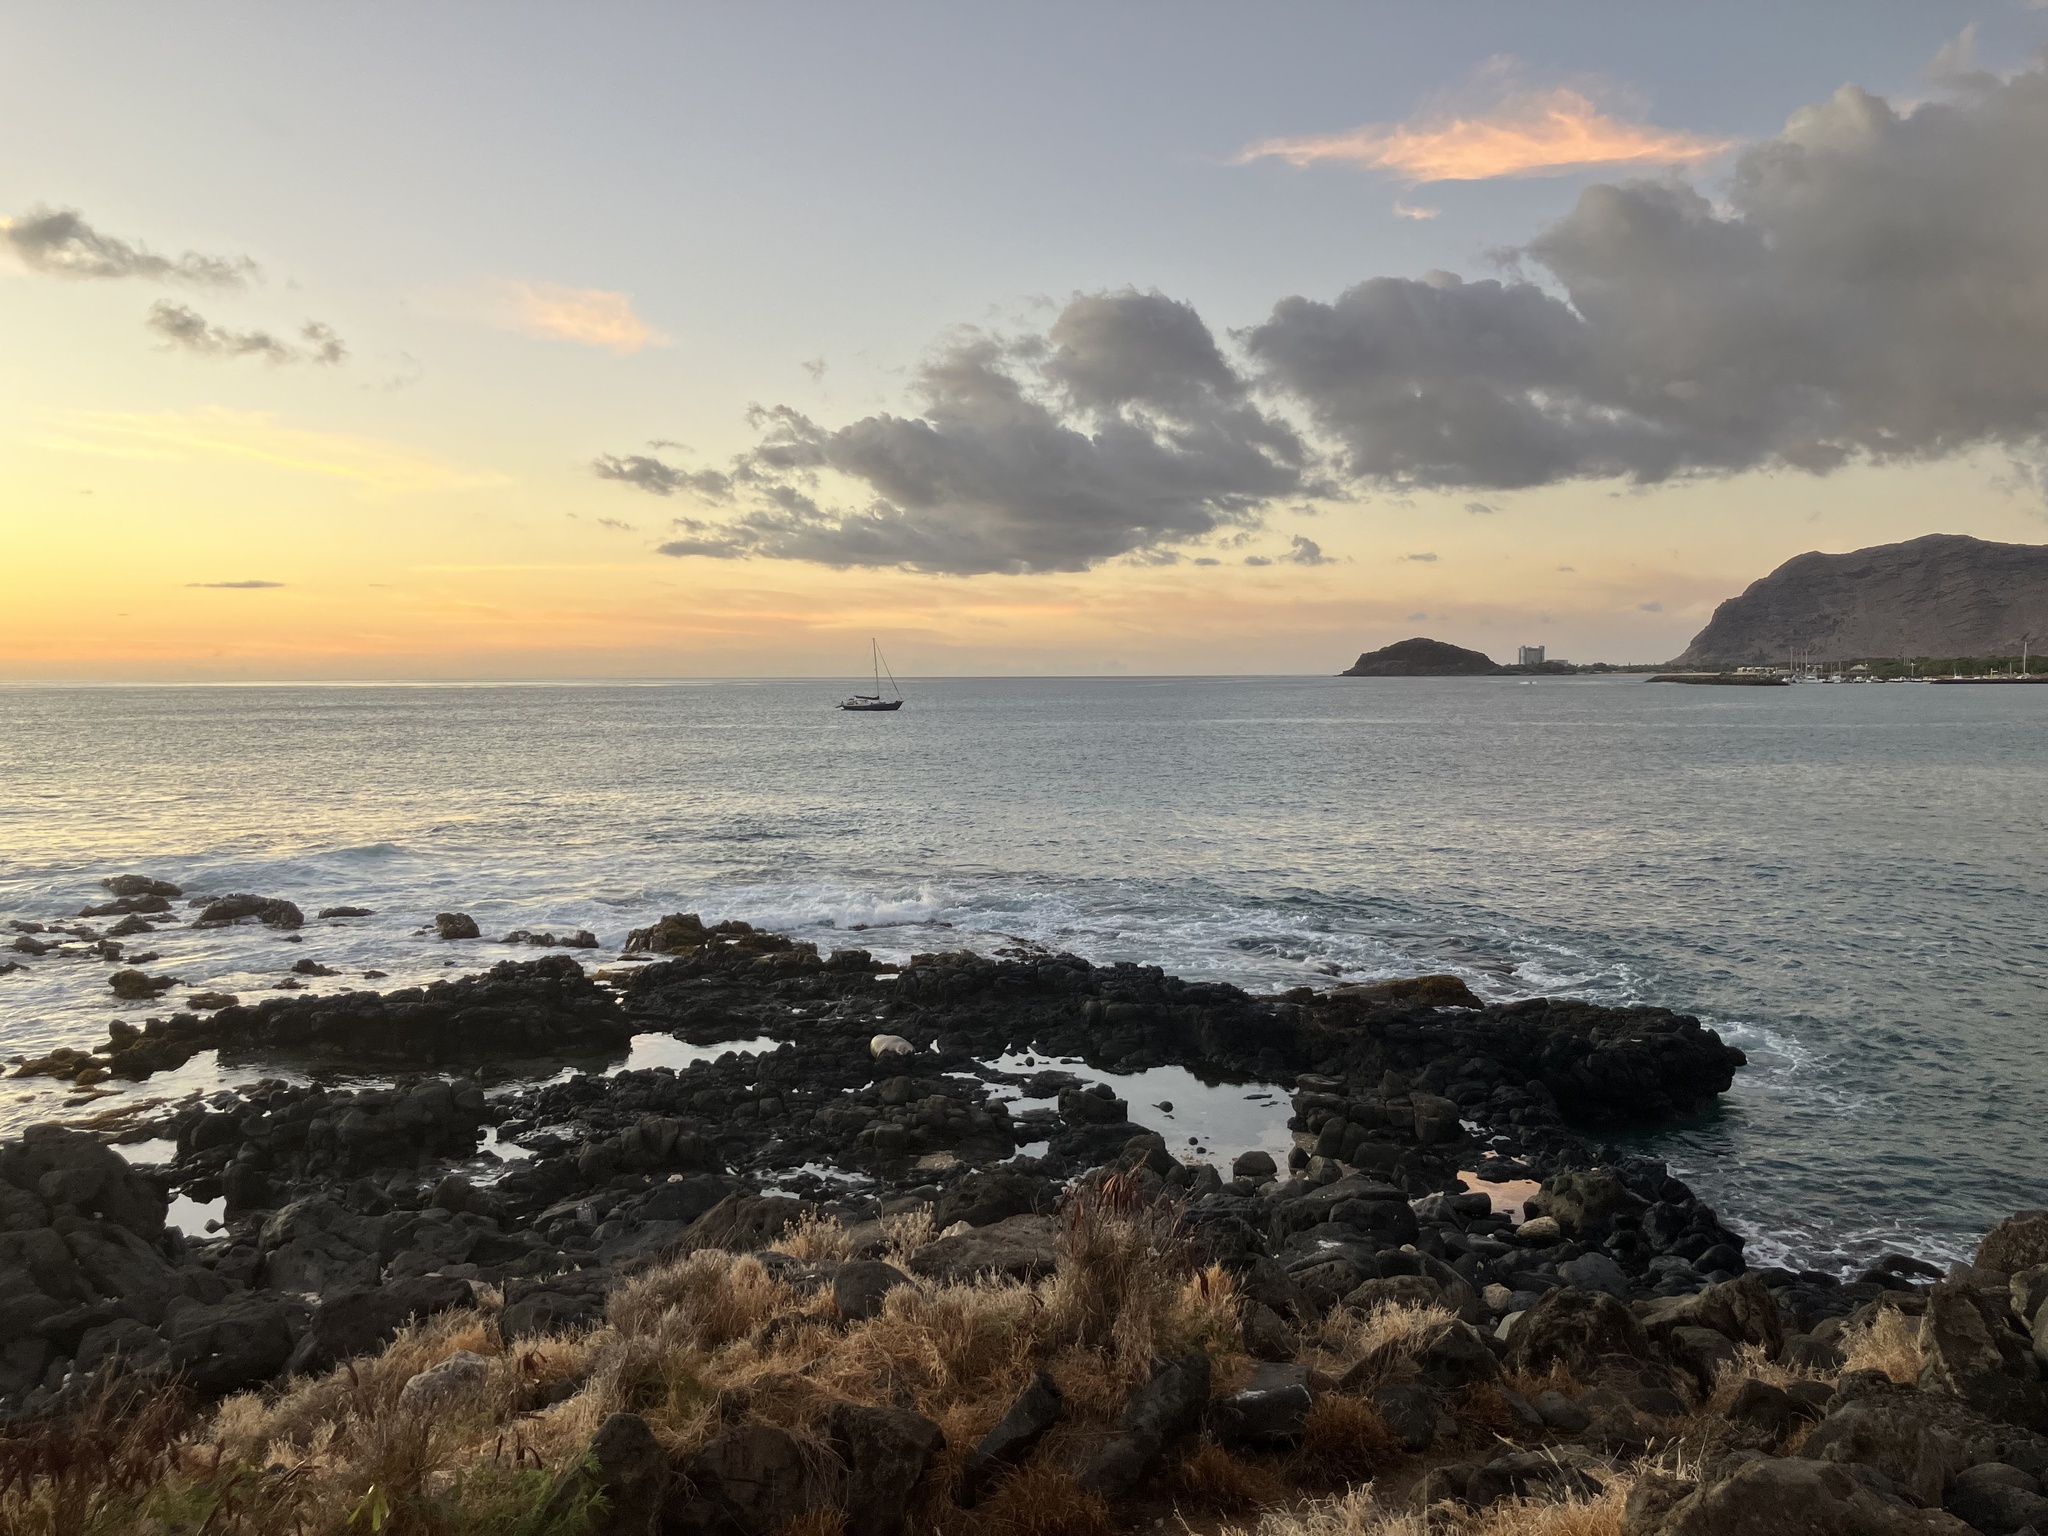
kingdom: Animalia
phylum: Chordata
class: Mammalia
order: Carnivora
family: Phocidae
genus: Neomonachus
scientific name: Neomonachus schauinslandi
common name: Hawaiian monk seal
